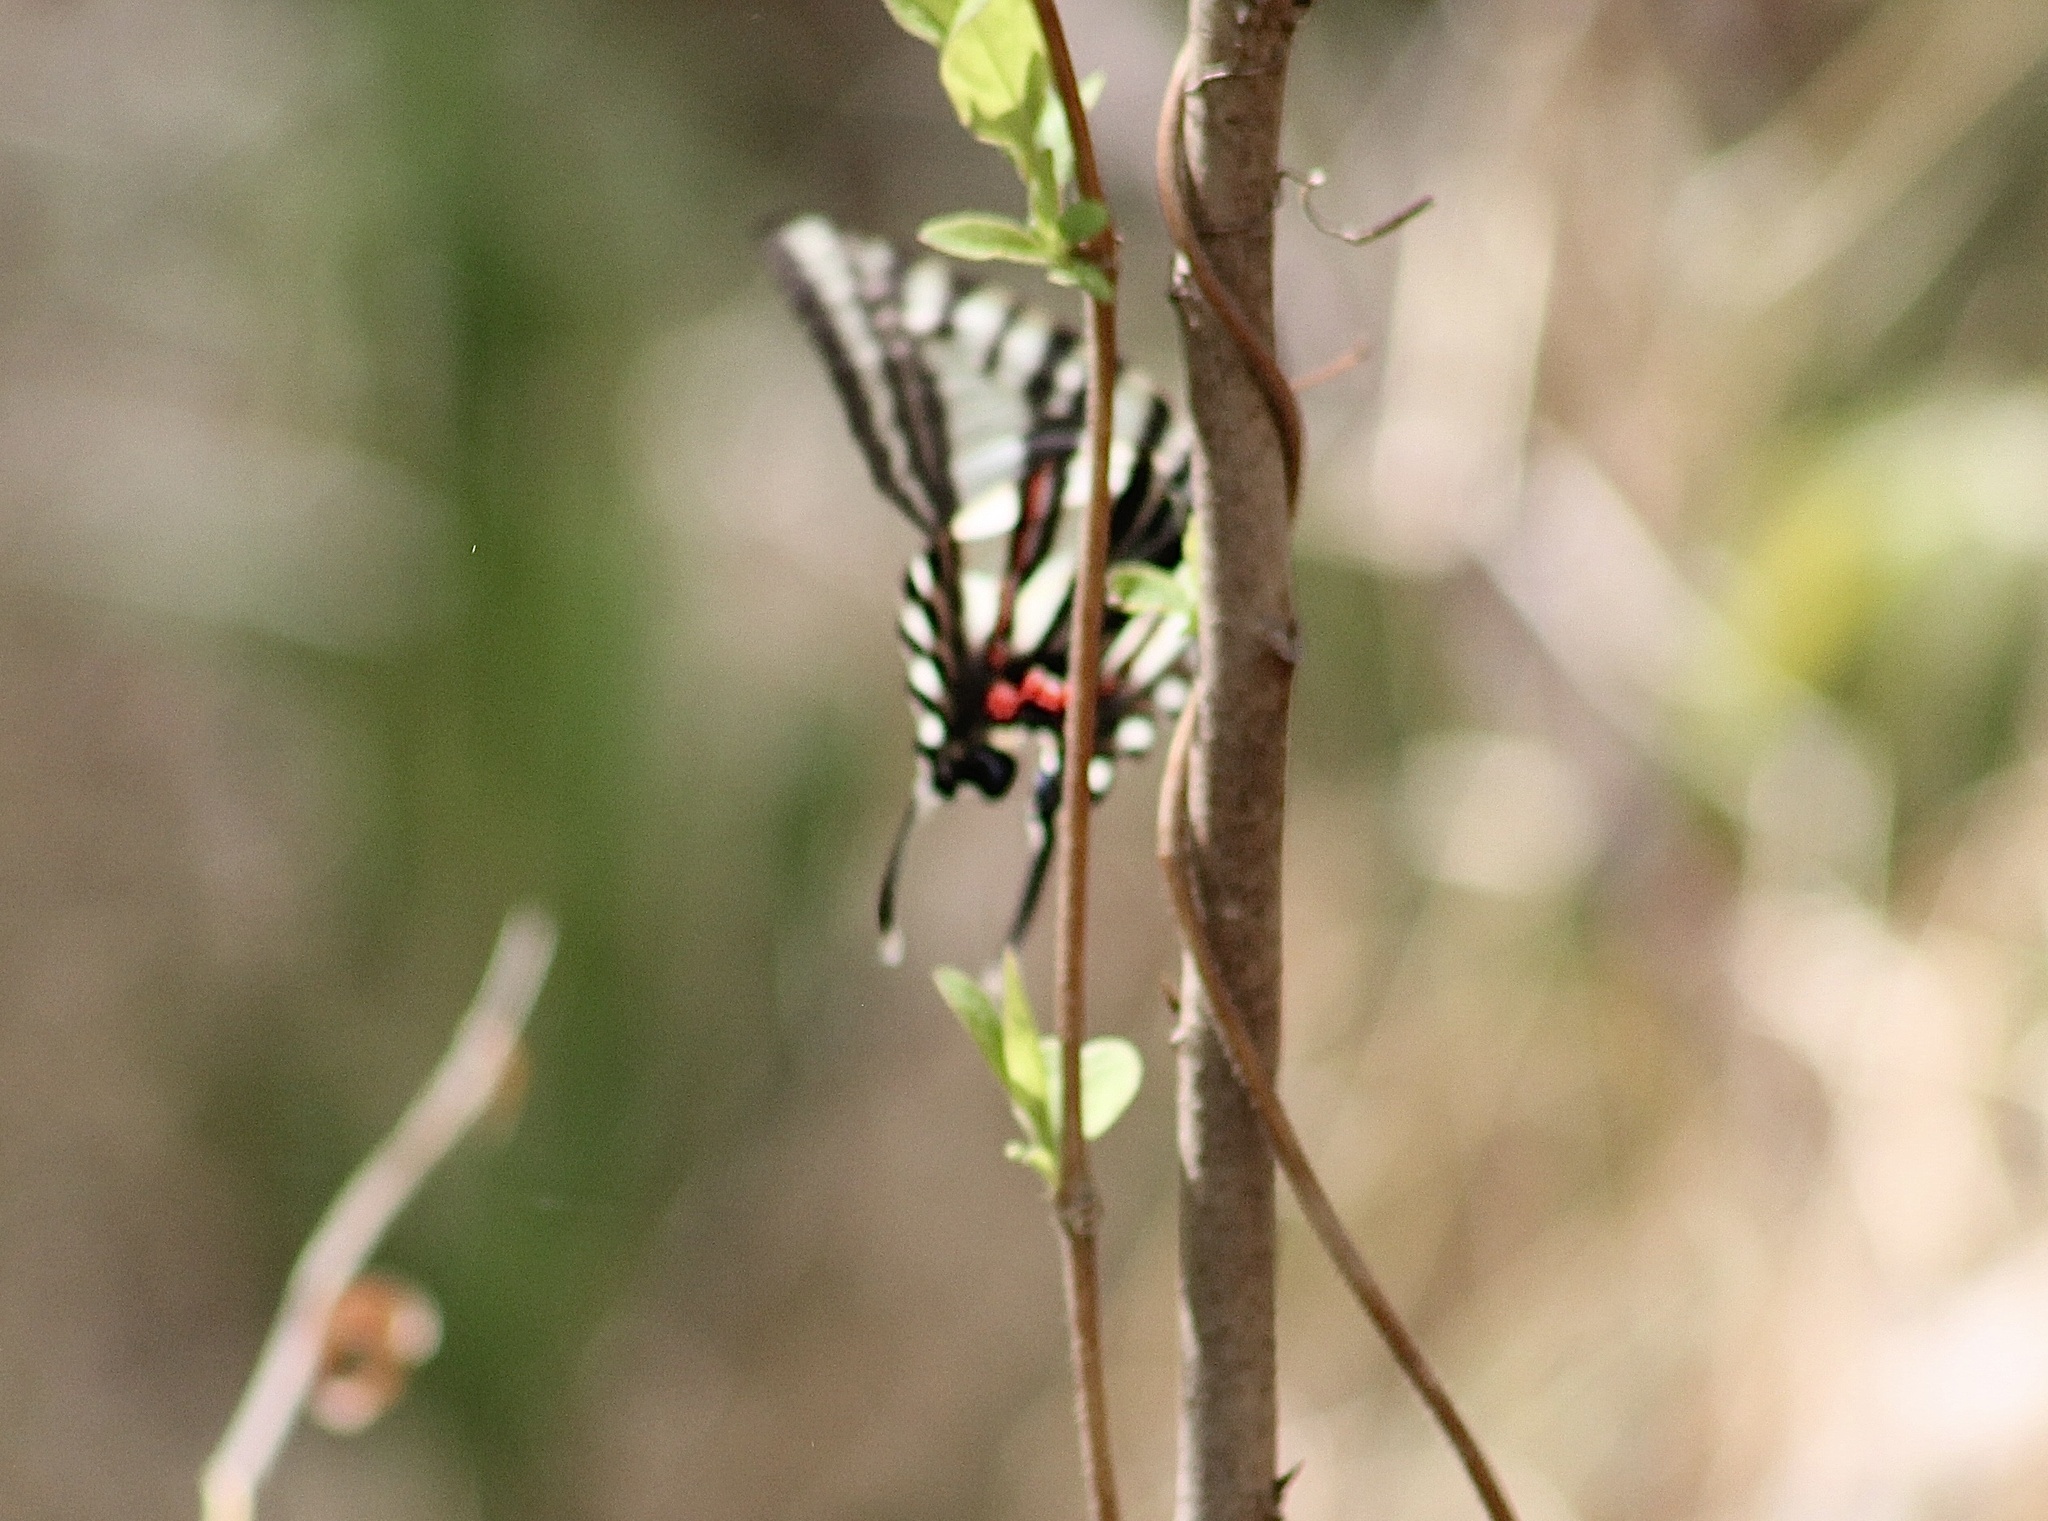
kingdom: Animalia
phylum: Arthropoda
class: Insecta
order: Lepidoptera
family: Papilionidae
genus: Protographium
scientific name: Protographium marcellus
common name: Zebra swallowtail
